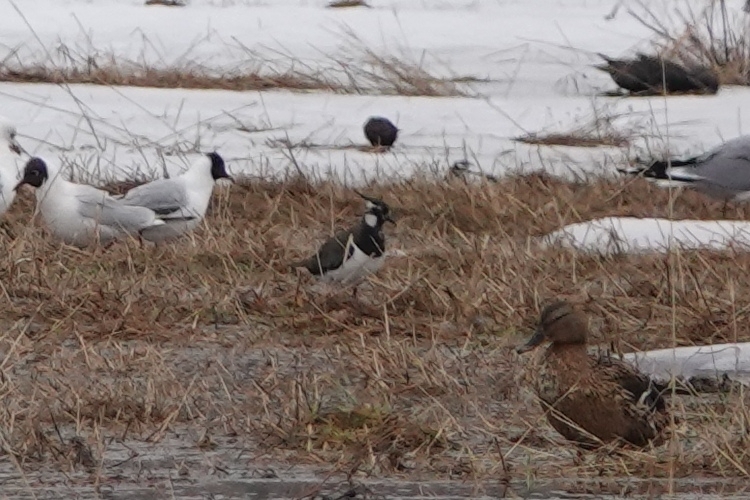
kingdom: Animalia
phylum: Chordata
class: Aves
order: Charadriiformes
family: Charadriidae
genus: Vanellus
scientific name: Vanellus vanellus
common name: Northern lapwing
